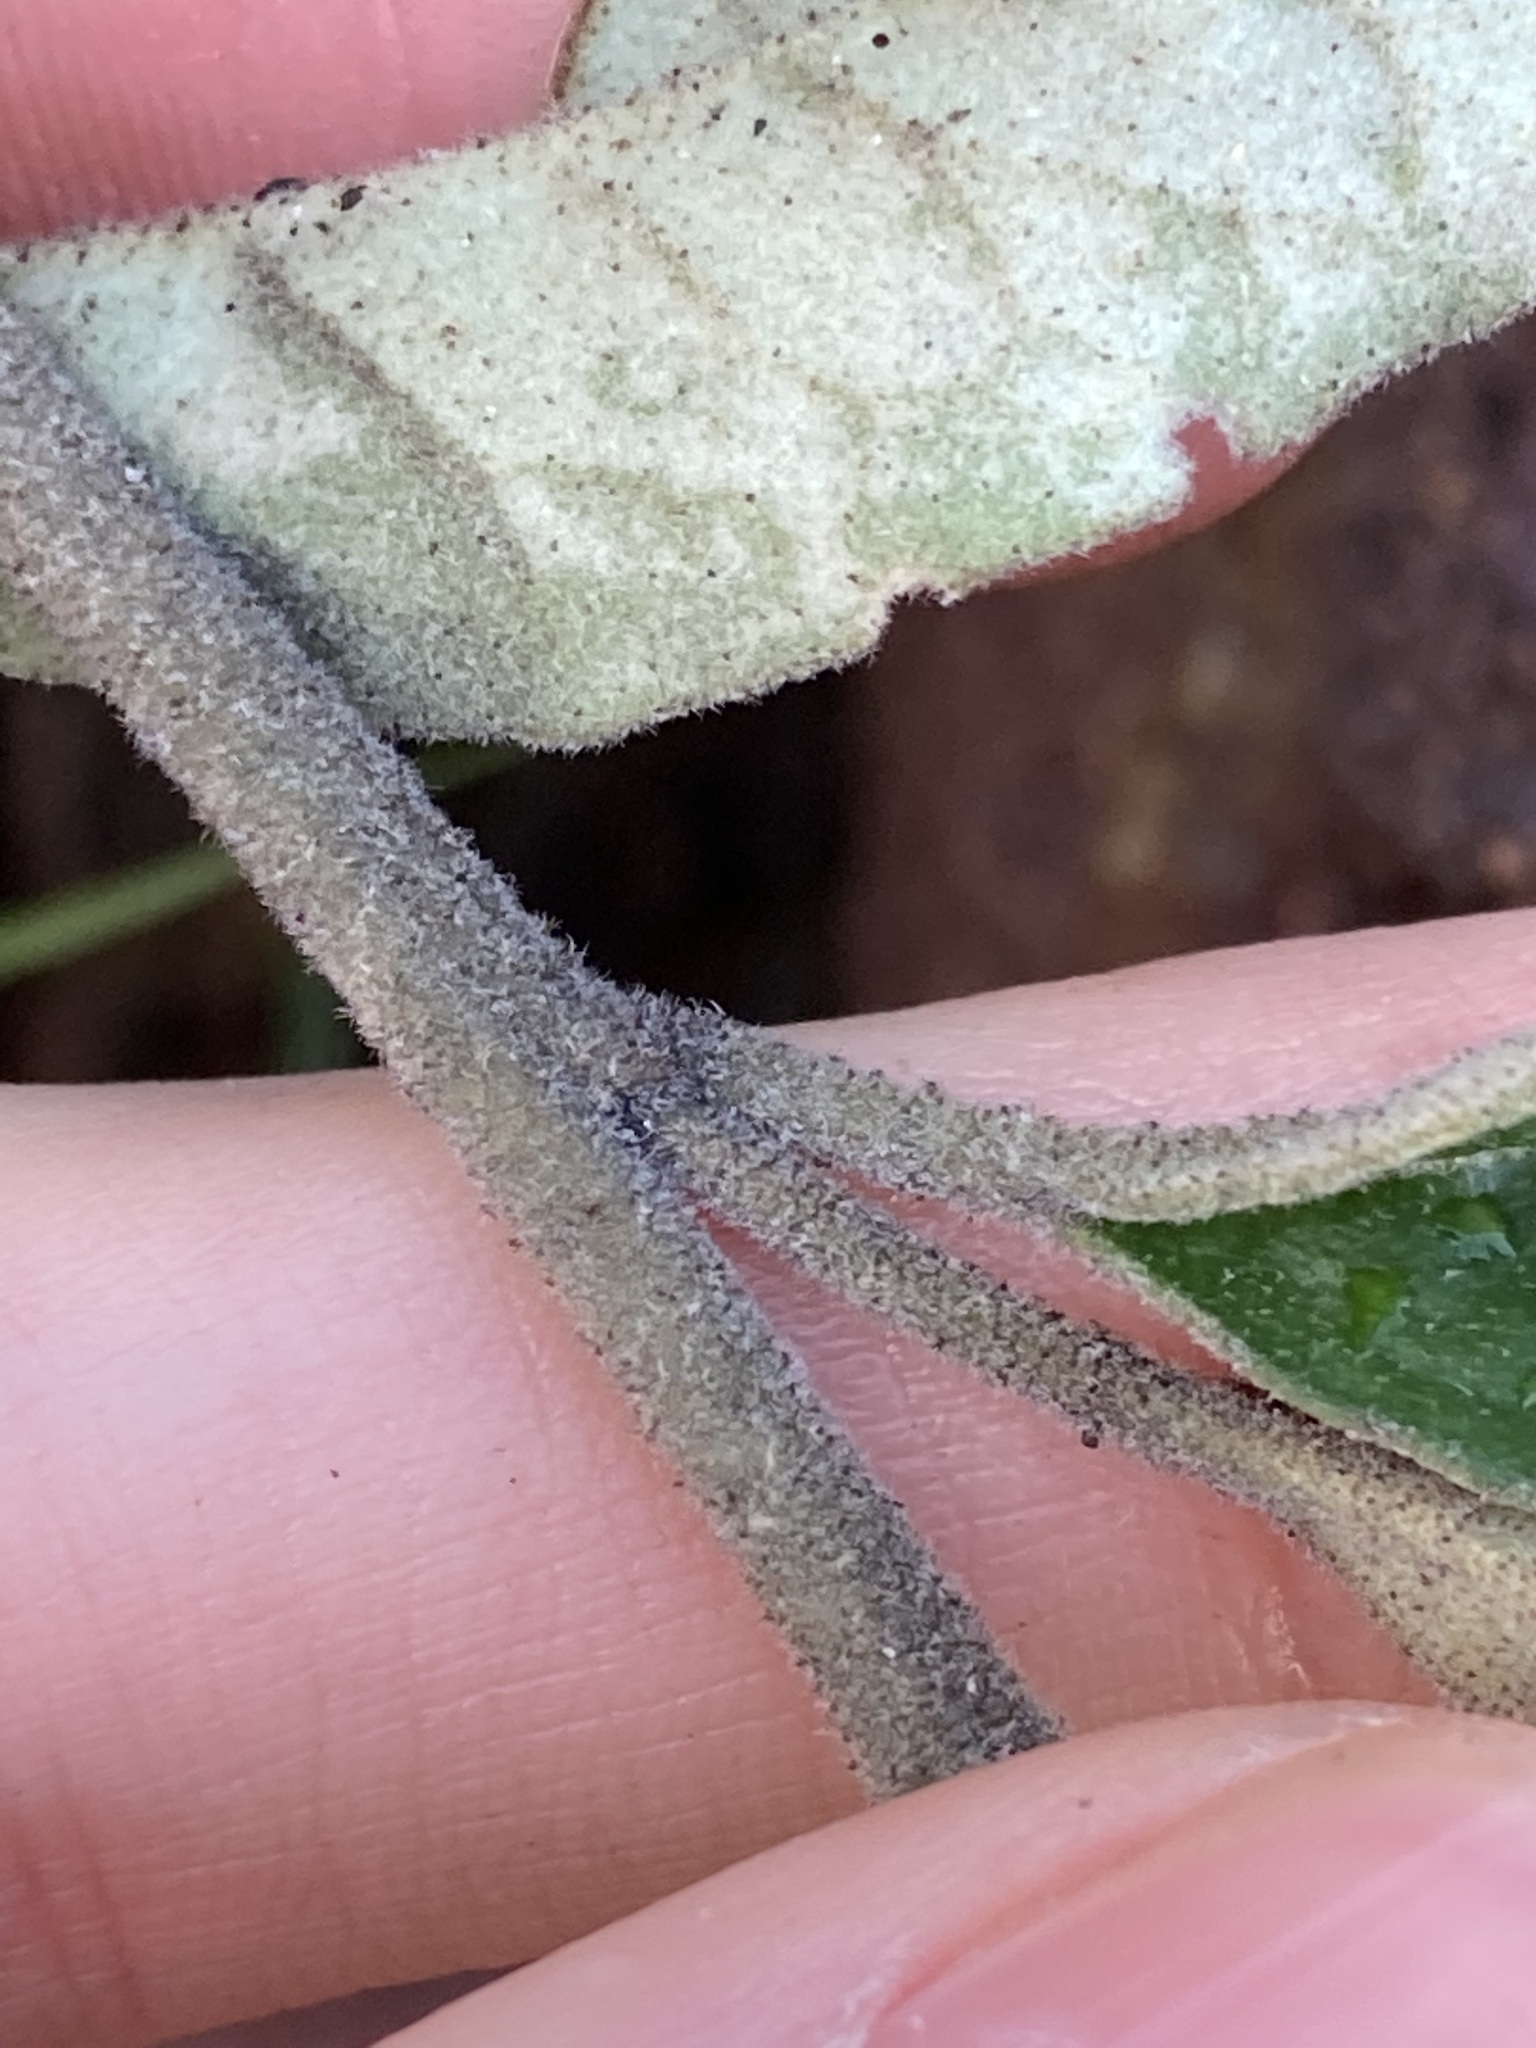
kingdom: Plantae
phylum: Tracheophyta
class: Magnoliopsida
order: Sapindales
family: Rutaceae
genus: Diplolaena
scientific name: Diplolaena eneabbensis
